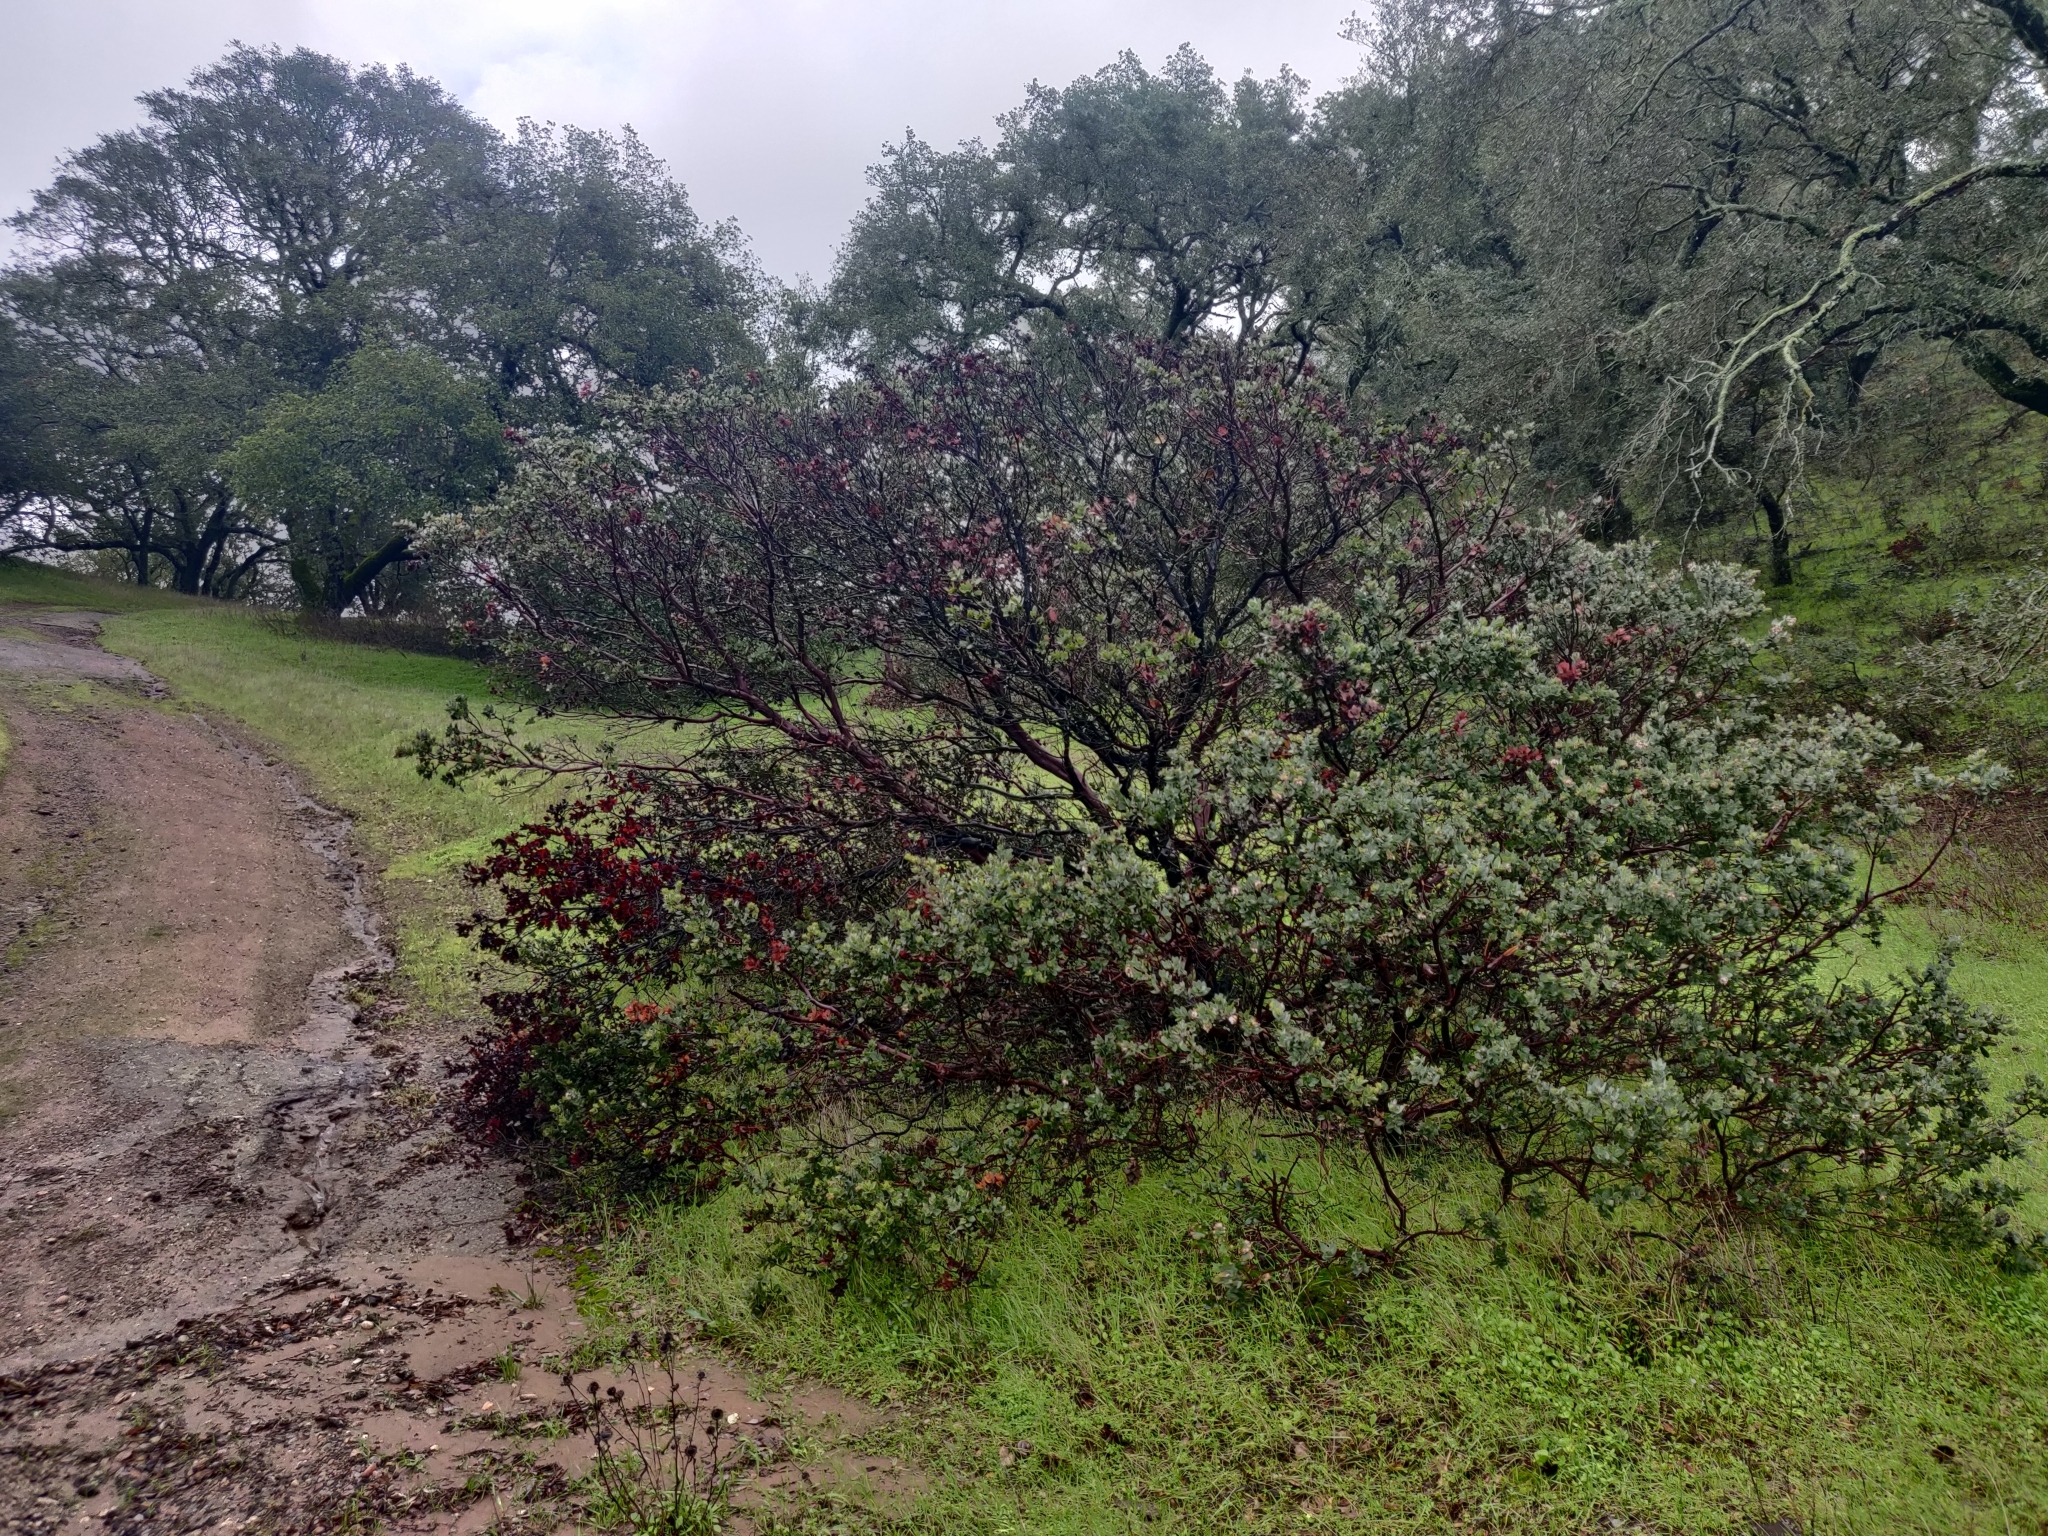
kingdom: Plantae
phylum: Tracheophyta
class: Magnoliopsida
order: Ericales
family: Ericaceae
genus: Arctostaphylos
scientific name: Arctostaphylos auriculata
